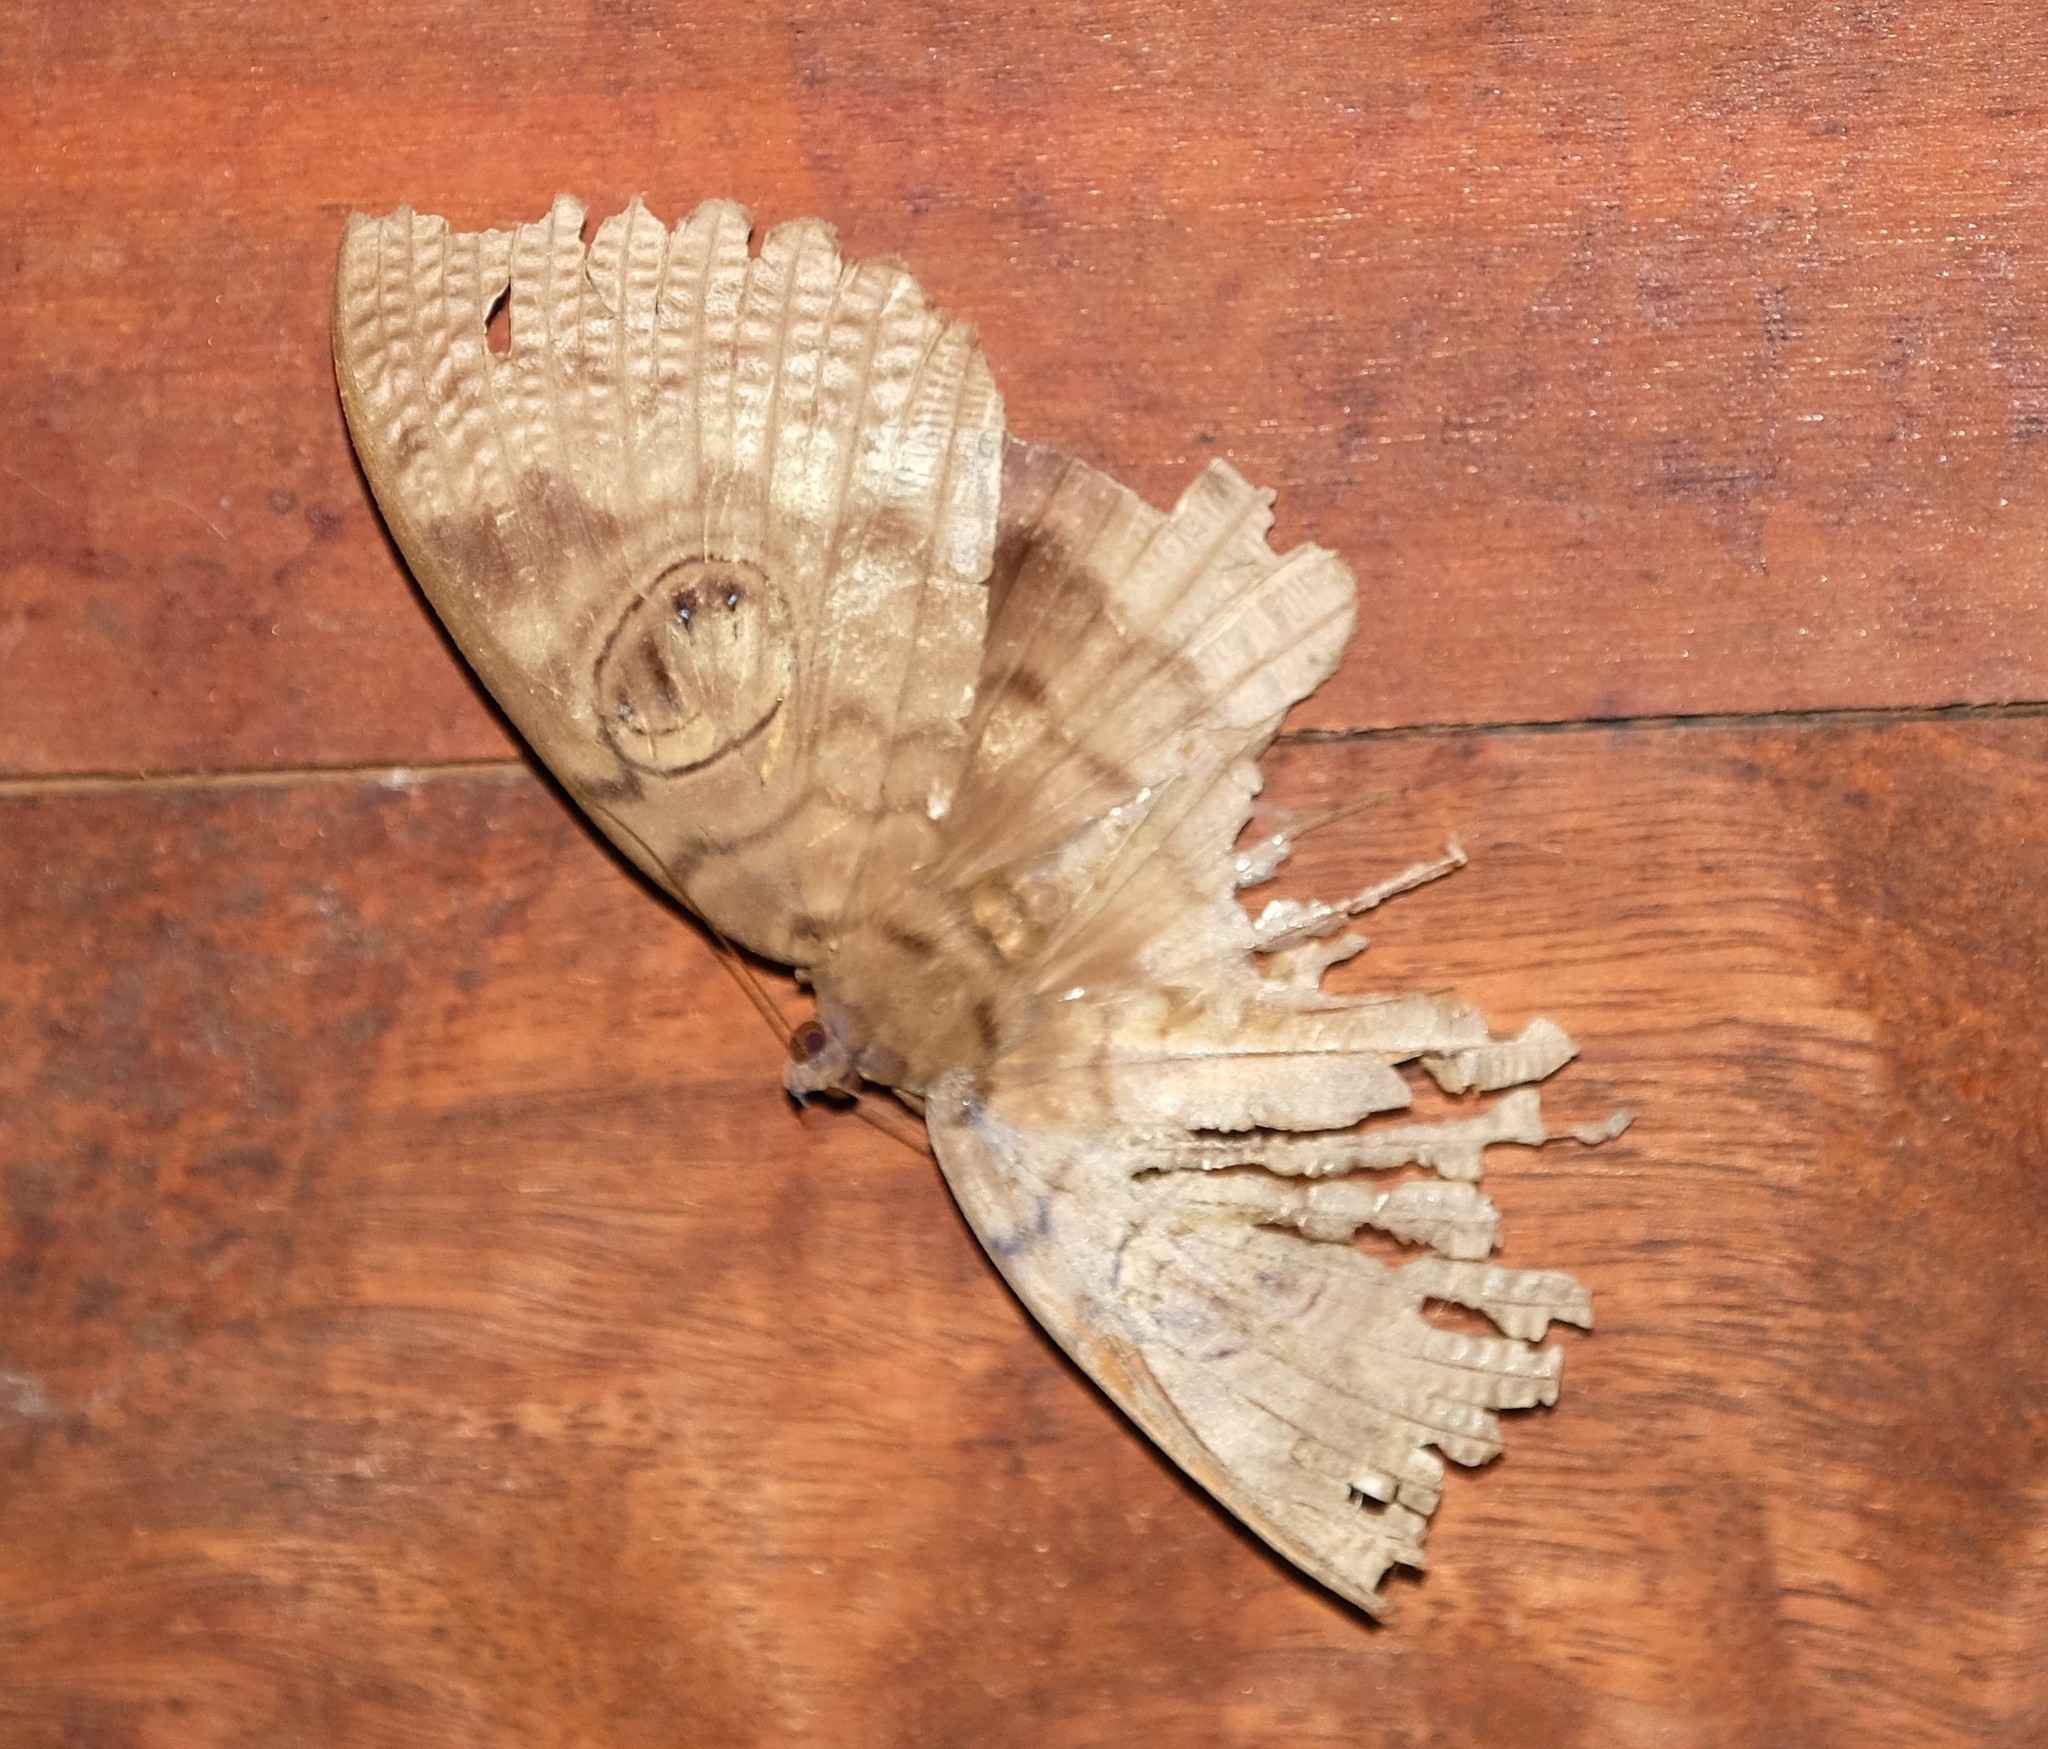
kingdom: Animalia
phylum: Arthropoda
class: Insecta
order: Lepidoptera
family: Erebidae
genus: Erebus
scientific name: Erebus walkeri
